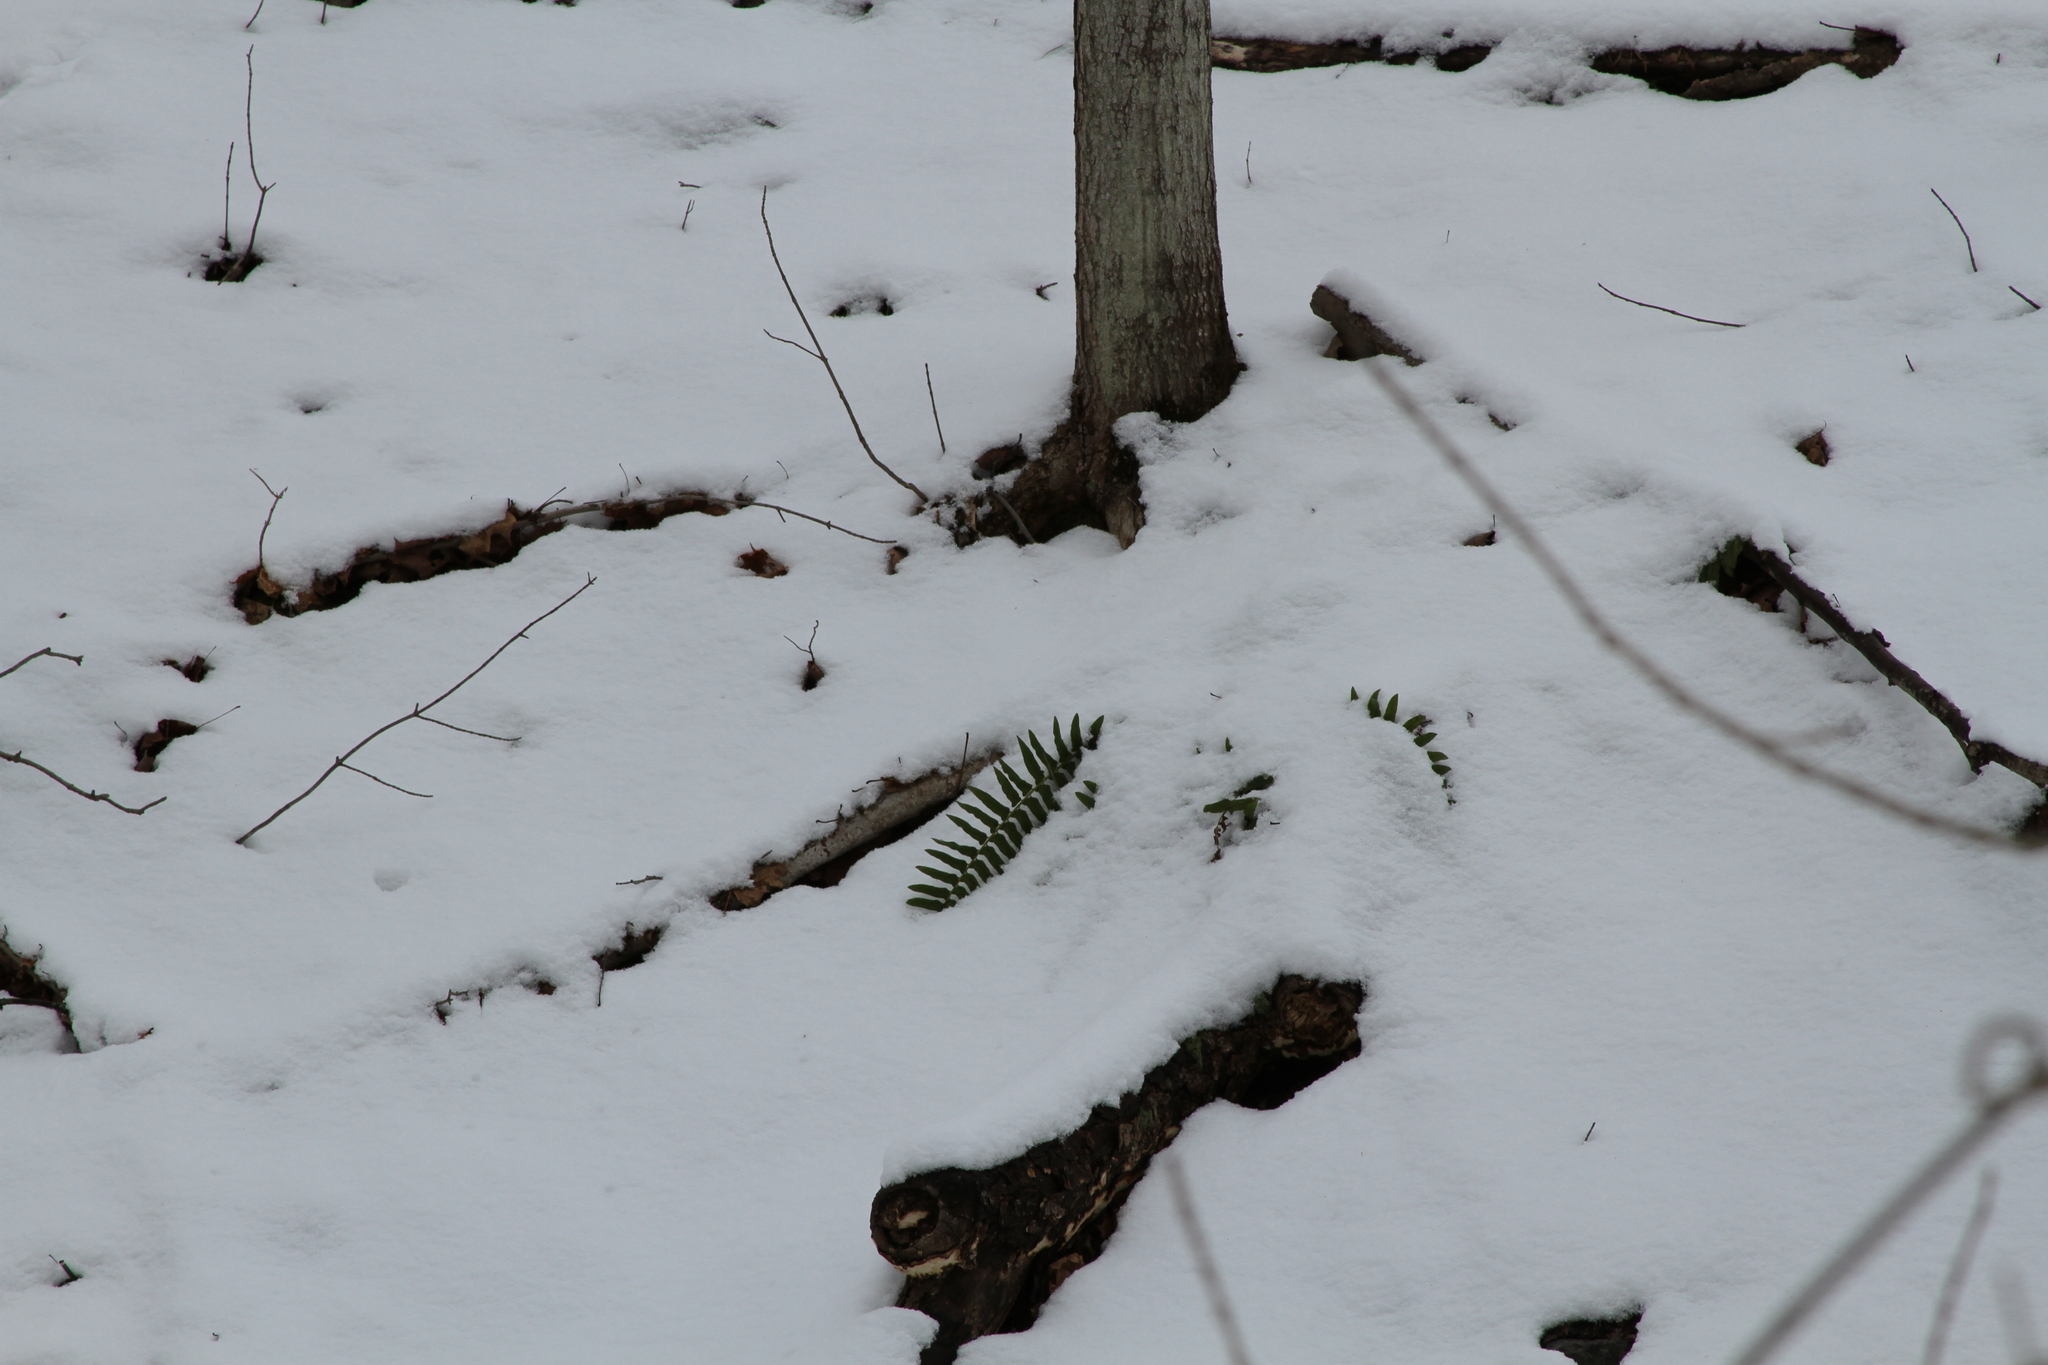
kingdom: Plantae
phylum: Tracheophyta
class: Polypodiopsida
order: Polypodiales
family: Dryopteridaceae
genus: Polystichum
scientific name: Polystichum acrostichoides
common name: Christmas fern
